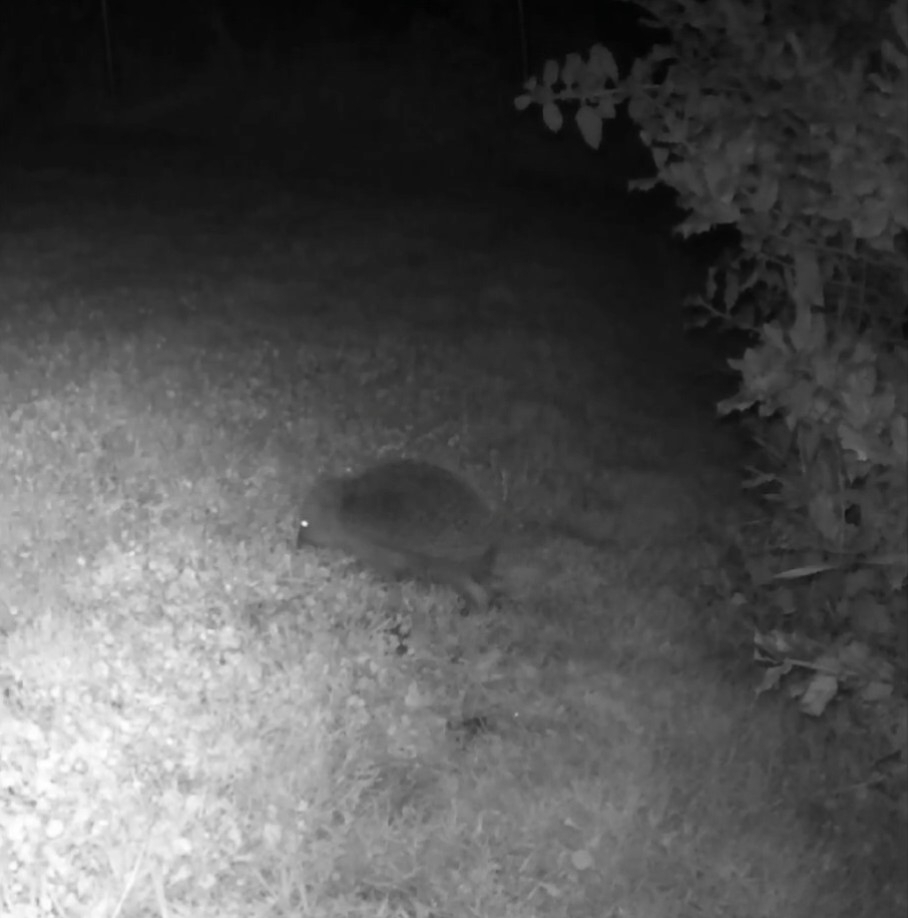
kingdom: Animalia
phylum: Chordata
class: Mammalia
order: Erinaceomorpha
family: Erinaceidae
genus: Erinaceus
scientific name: Erinaceus europaeus
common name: West european hedgehog
